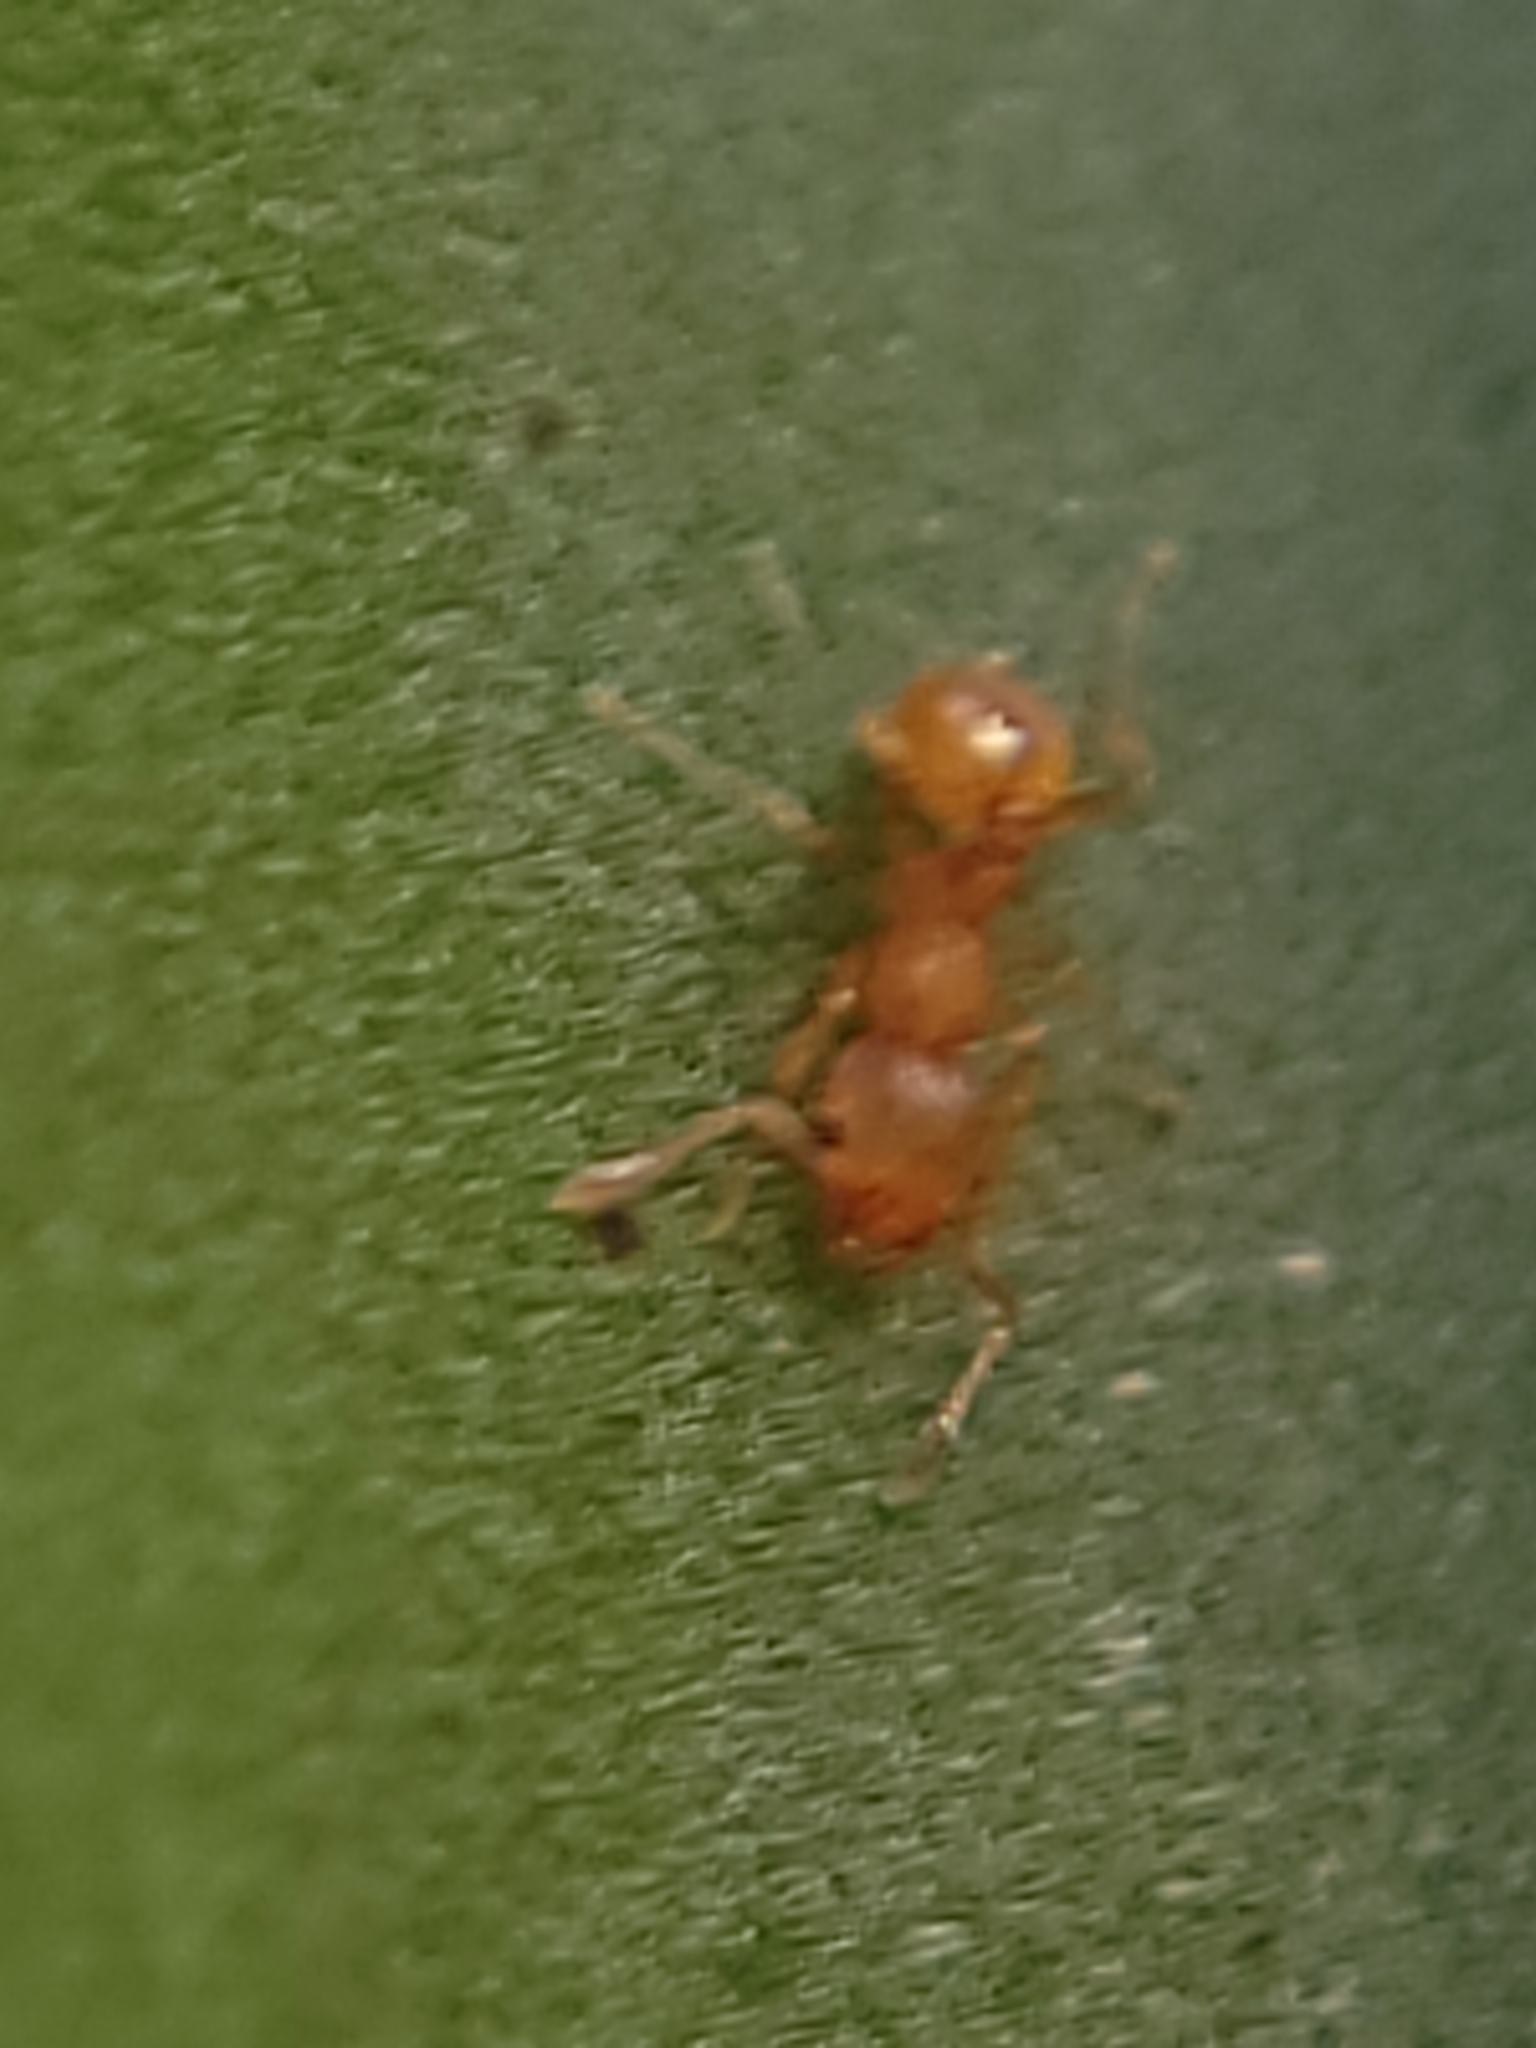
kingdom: Animalia
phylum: Arthropoda
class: Insecta
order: Hymenoptera
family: Formicidae
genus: Wasmannia
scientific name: Wasmannia auropunctata
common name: Little fire ant
